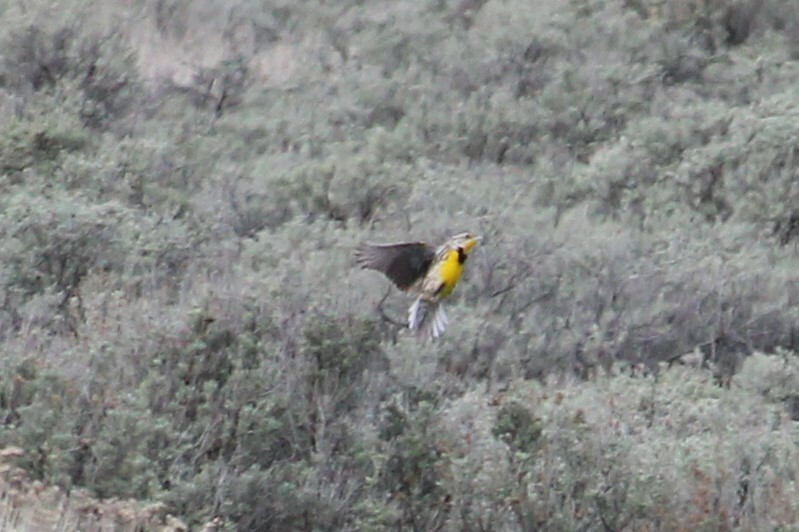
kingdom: Animalia
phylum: Chordata
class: Aves
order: Passeriformes
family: Icteridae
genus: Sturnella
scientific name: Sturnella neglecta
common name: Western meadowlark
